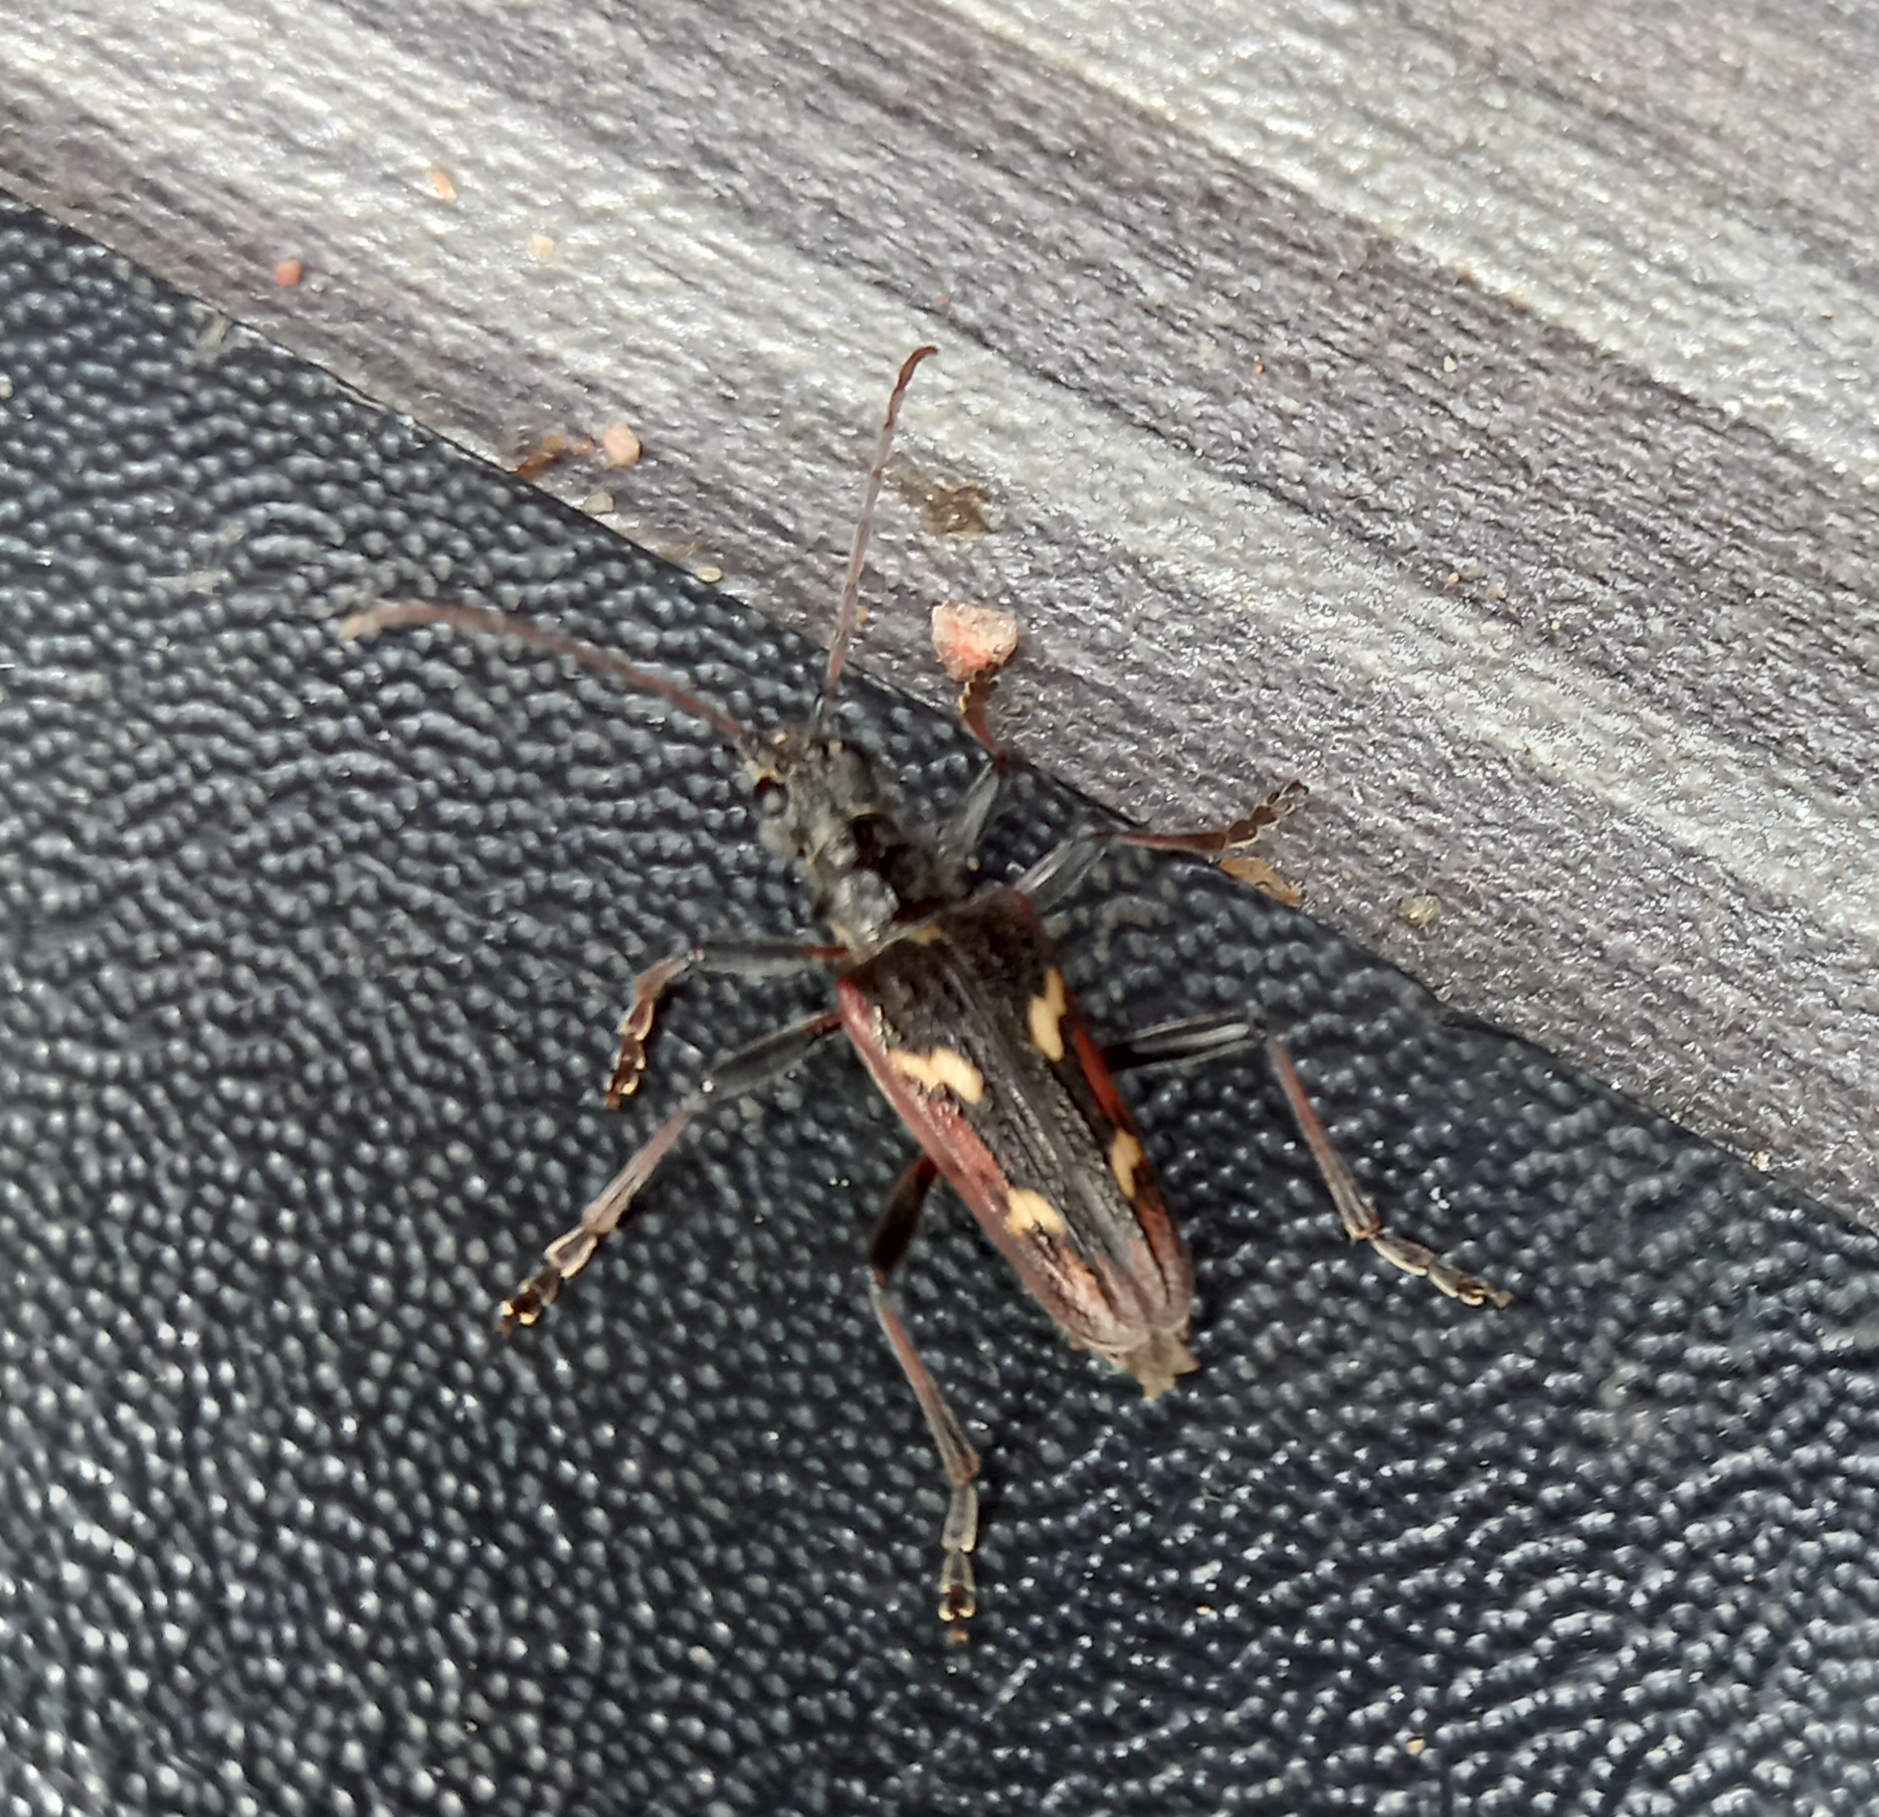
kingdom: Animalia
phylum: Arthropoda
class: Insecta
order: Coleoptera
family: Cerambycidae
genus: Rhagium
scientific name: Rhagium bifasciatum
